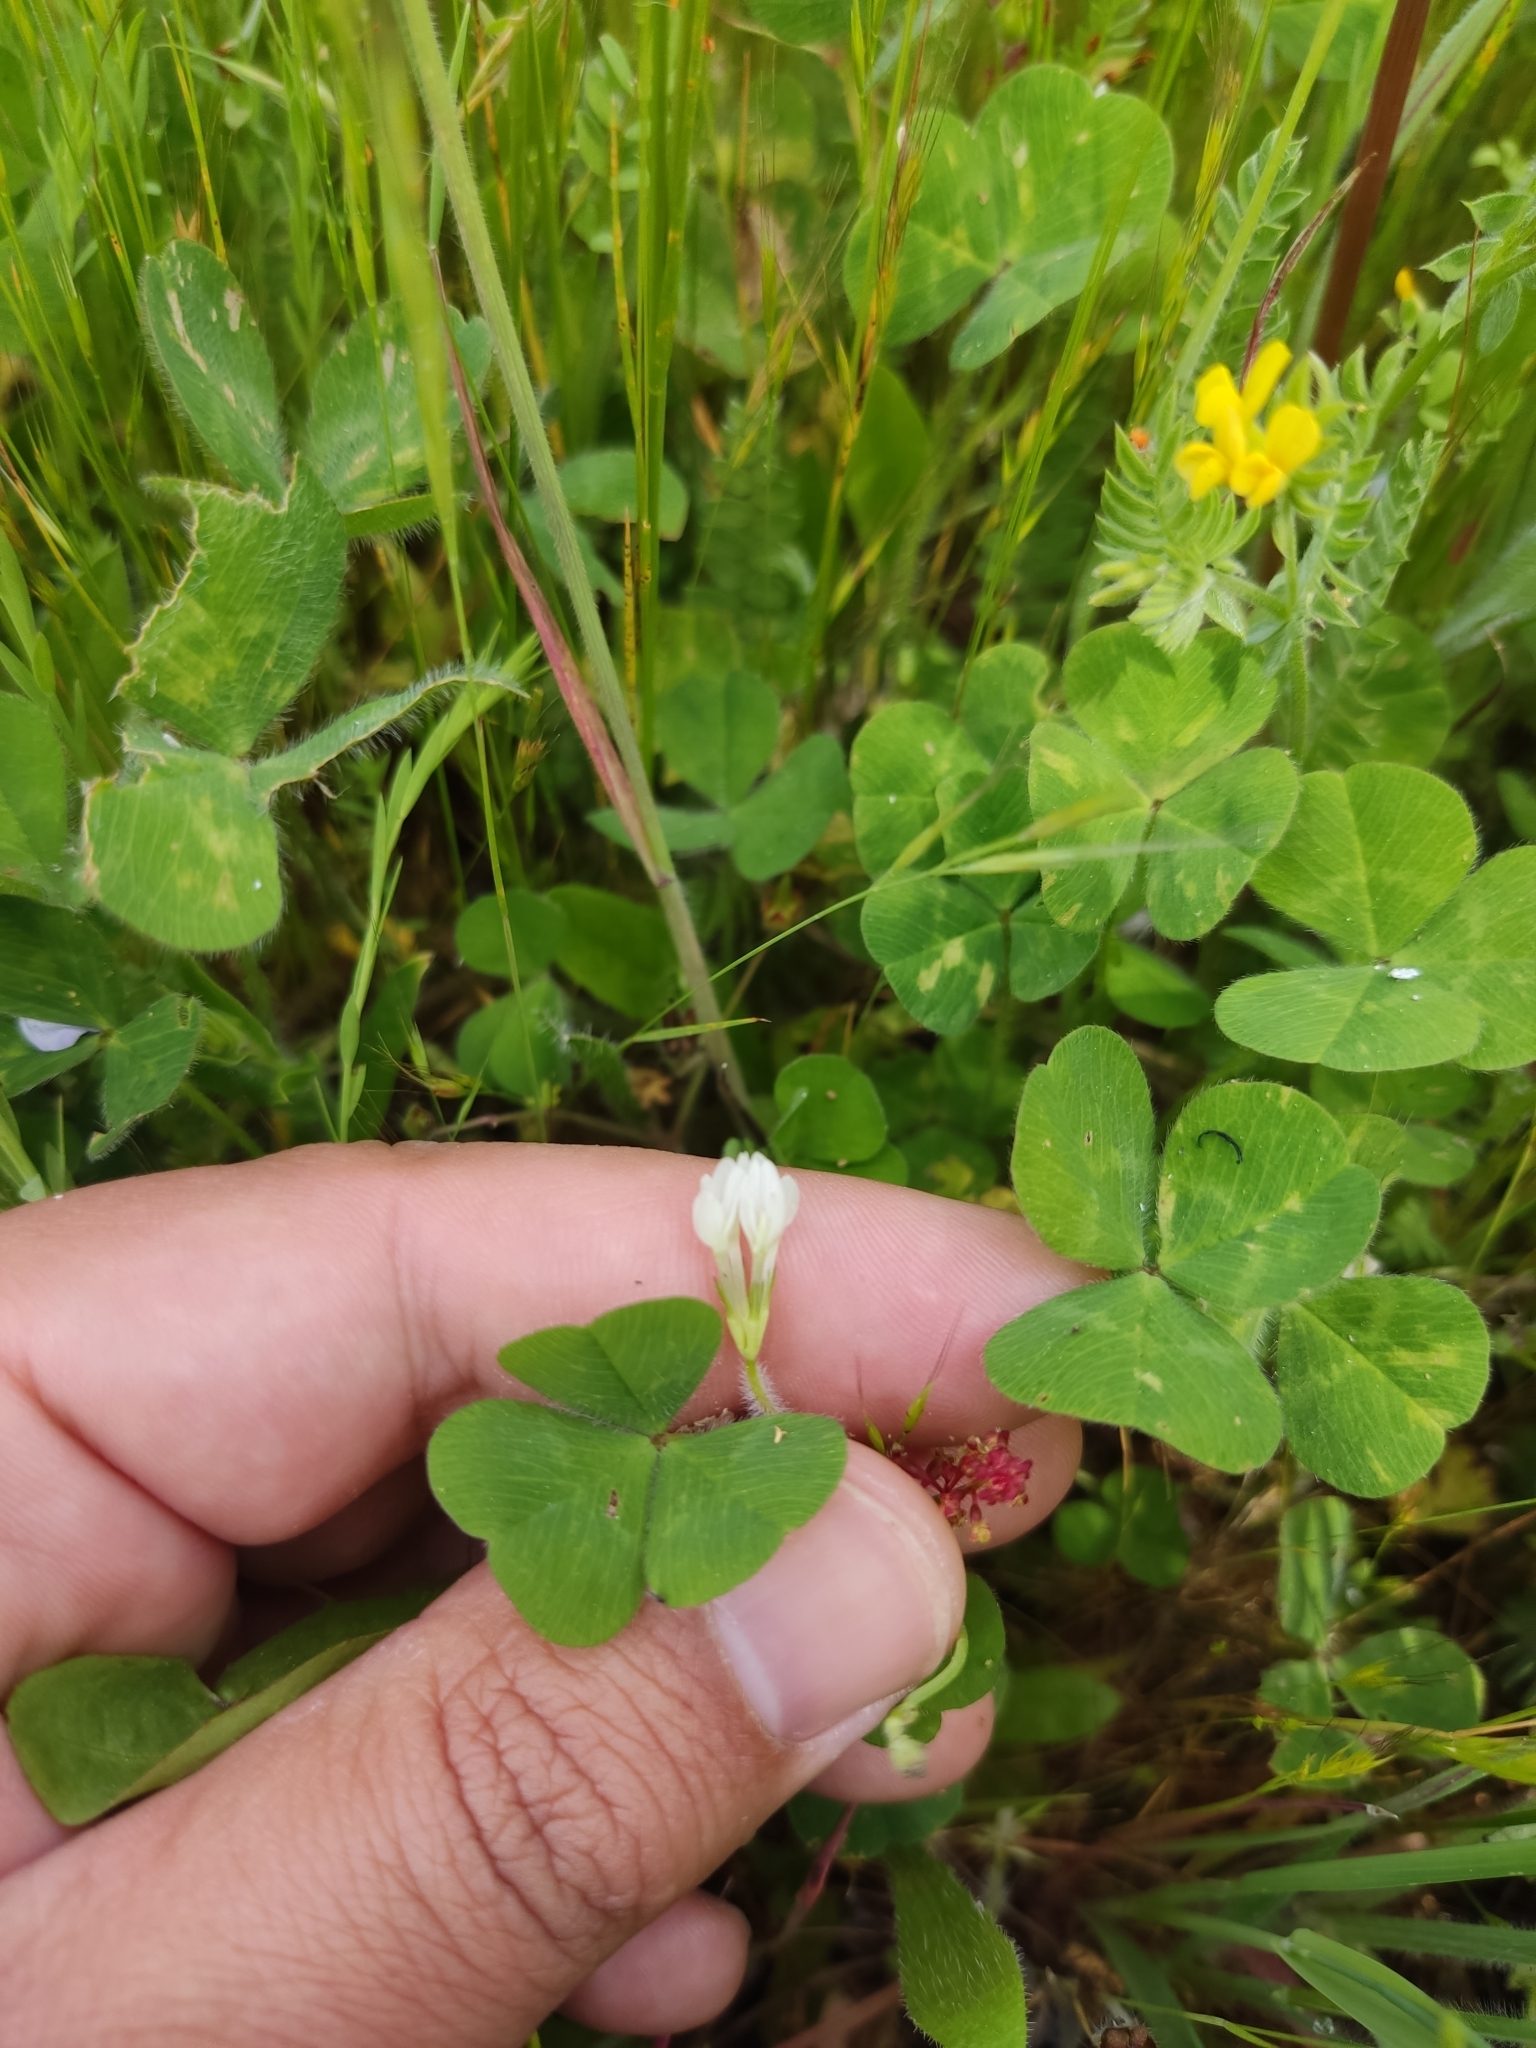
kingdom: Plantae
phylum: Tracheophyta
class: Magnoliopsida
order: Fabales
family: Fabaceae
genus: Trifolium
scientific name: Trifolium subterraneum
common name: Subterranean clover
